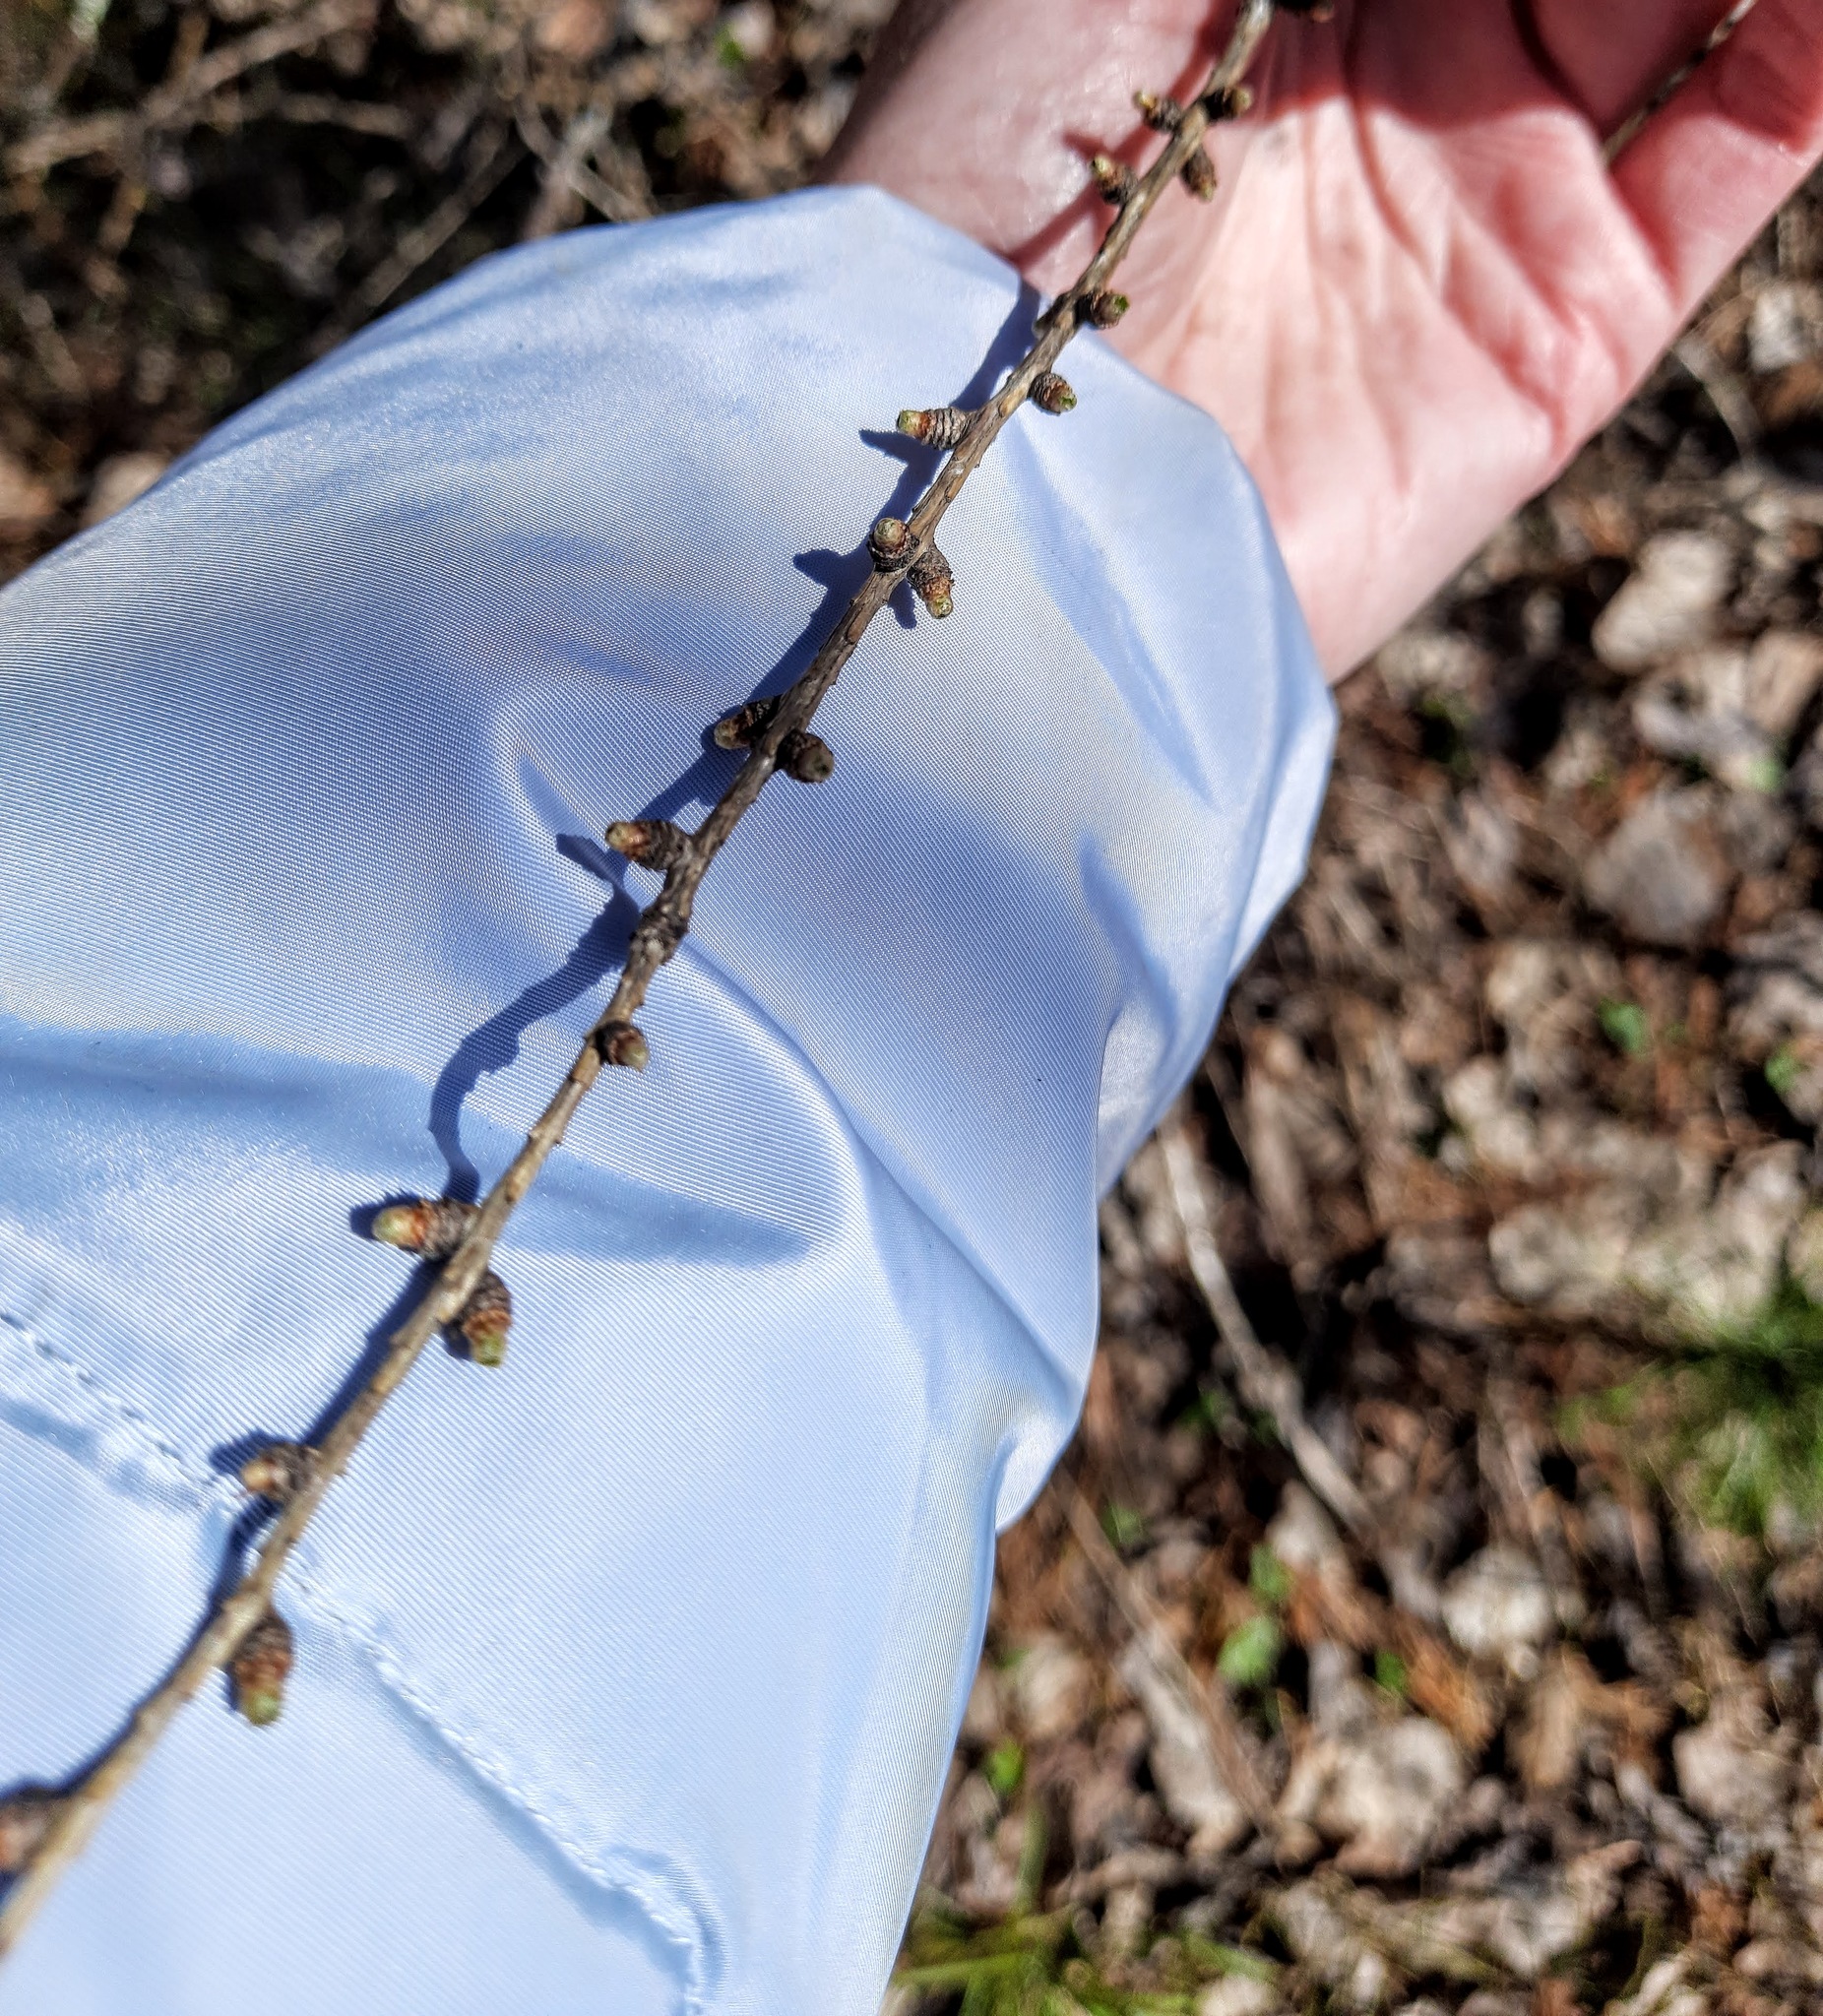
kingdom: Plantae
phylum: Tracheophyta
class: Pinopsida
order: Pinales
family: Pinaceae
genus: Larix
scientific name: Larix sibirica
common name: Siberian larch
